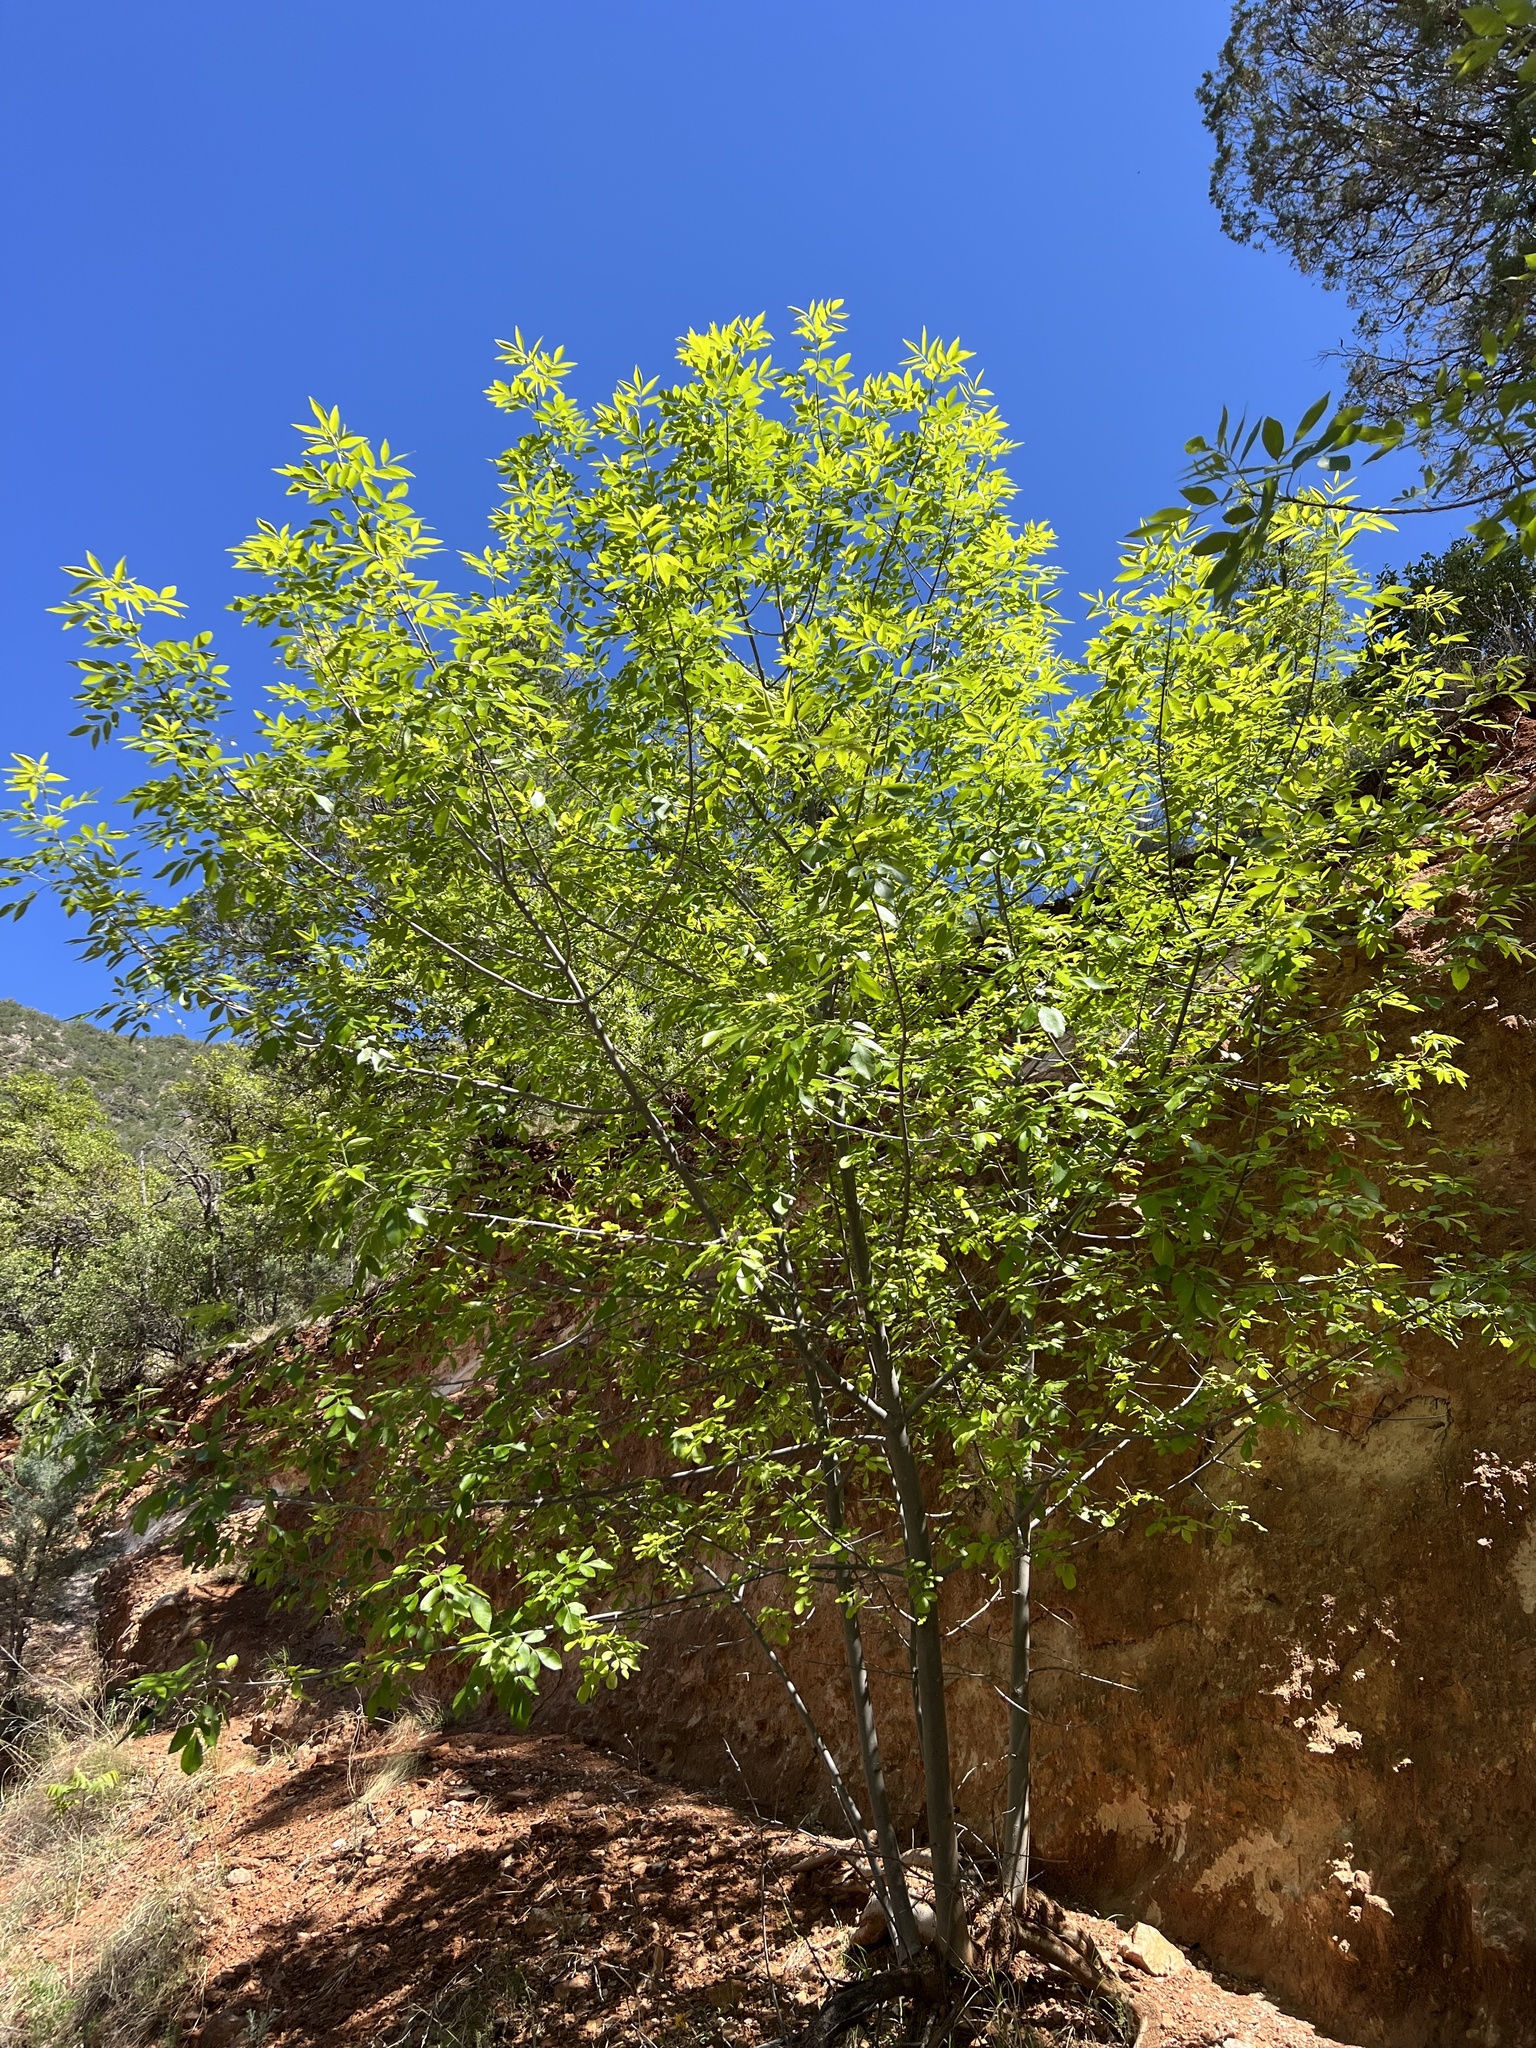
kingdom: Plantae
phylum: Tracheophyta
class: Magnoliopsida
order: Lamiales
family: Oleaceae
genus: Fraxinus
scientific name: Fraxinus velutina
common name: Arizon ash
